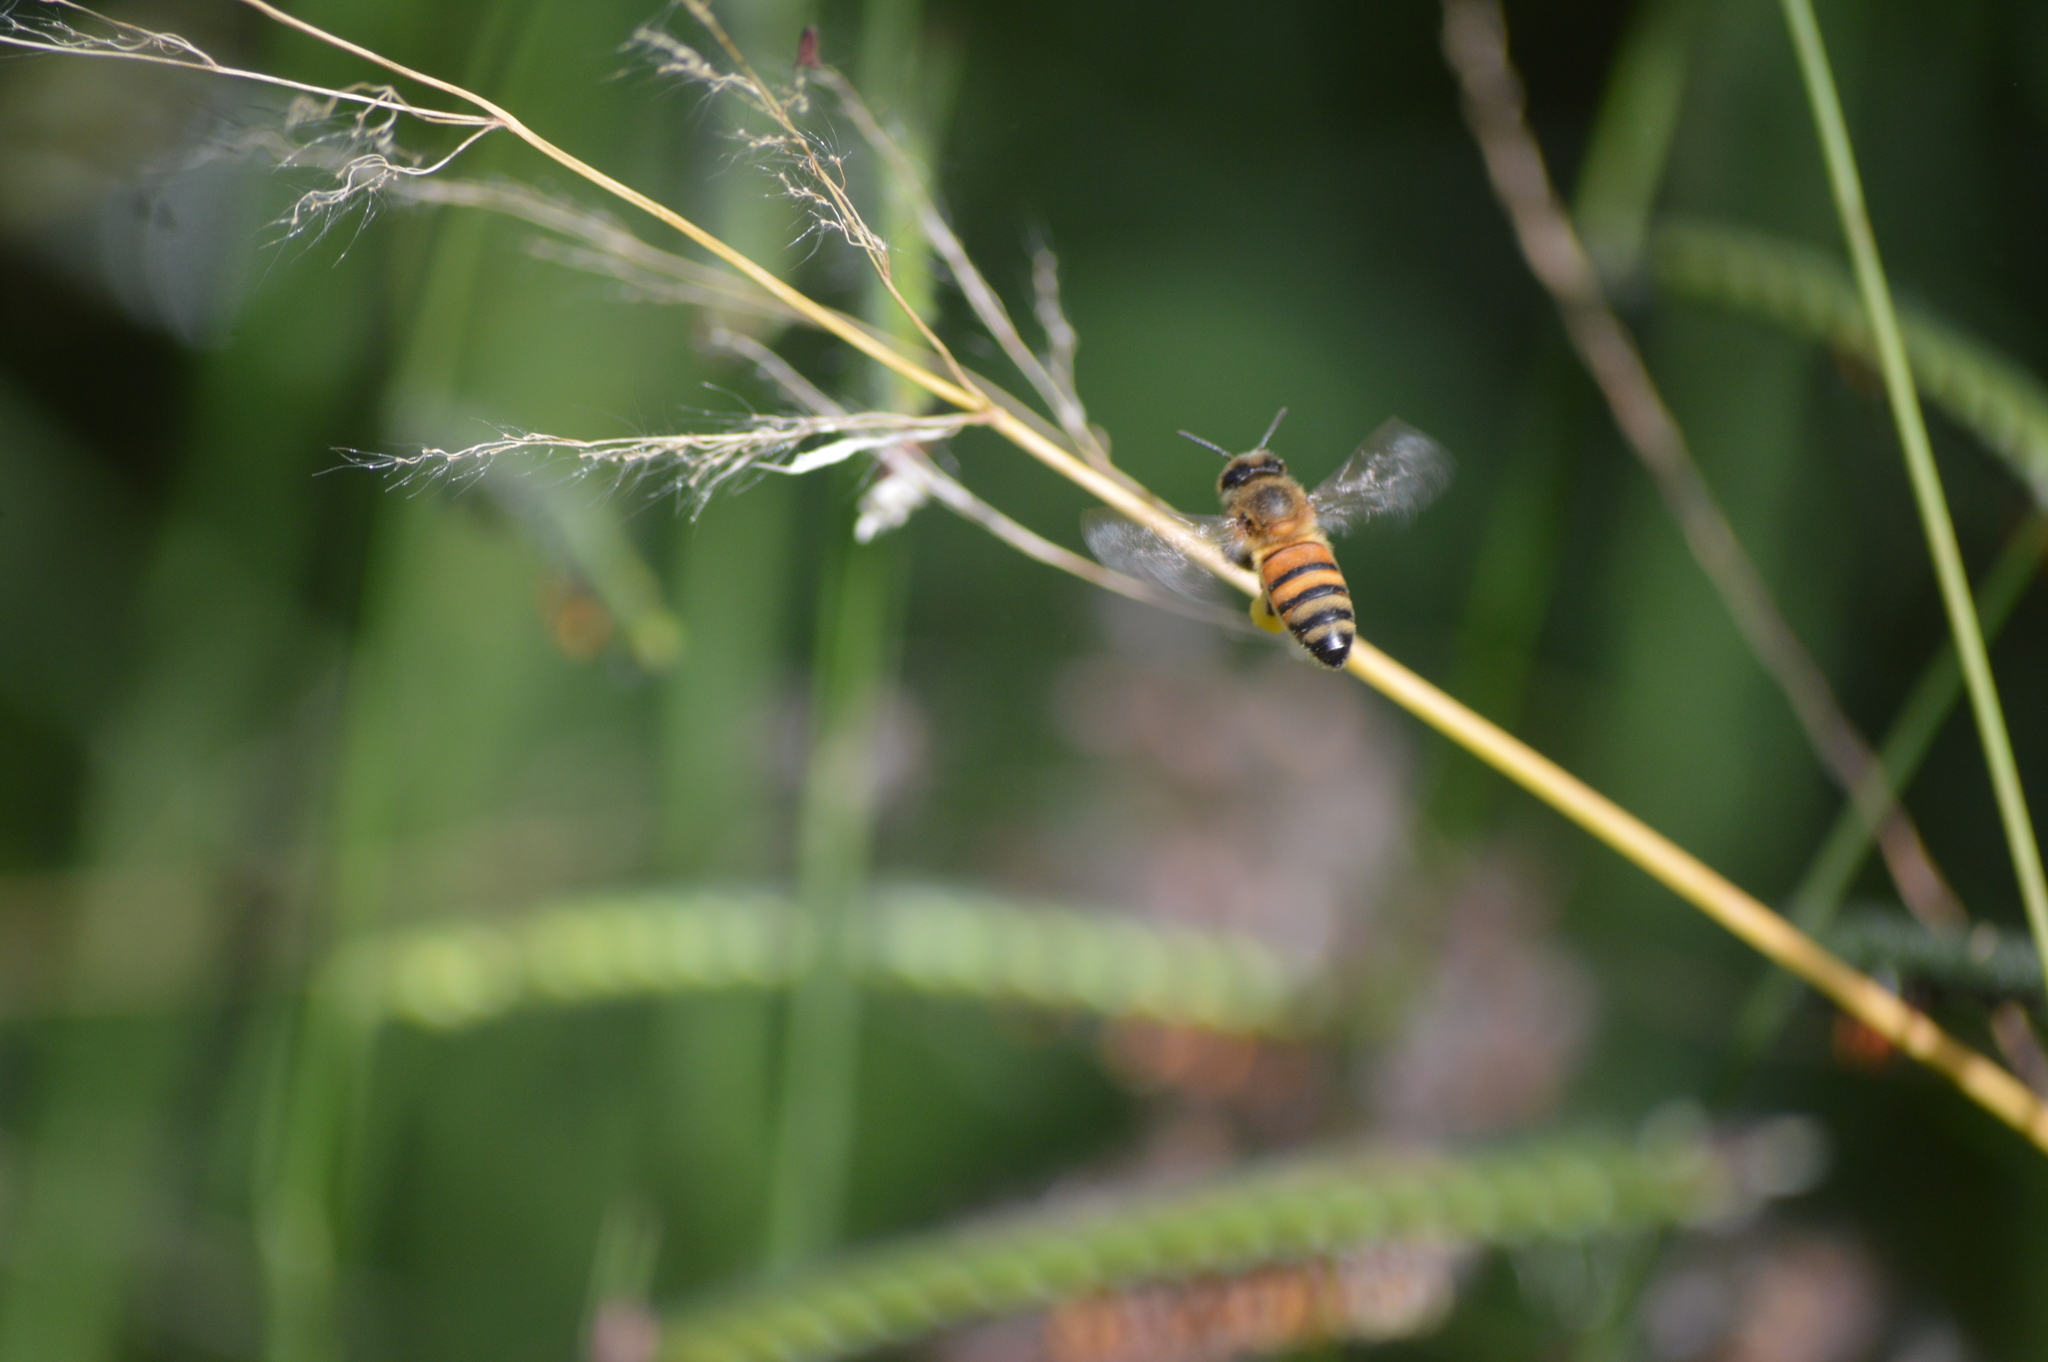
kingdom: Animalia
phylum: Arthropoda
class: Insecta
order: Hymenoptera
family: Apidae
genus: Apis
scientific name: Apis mellifera
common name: Honey bee
